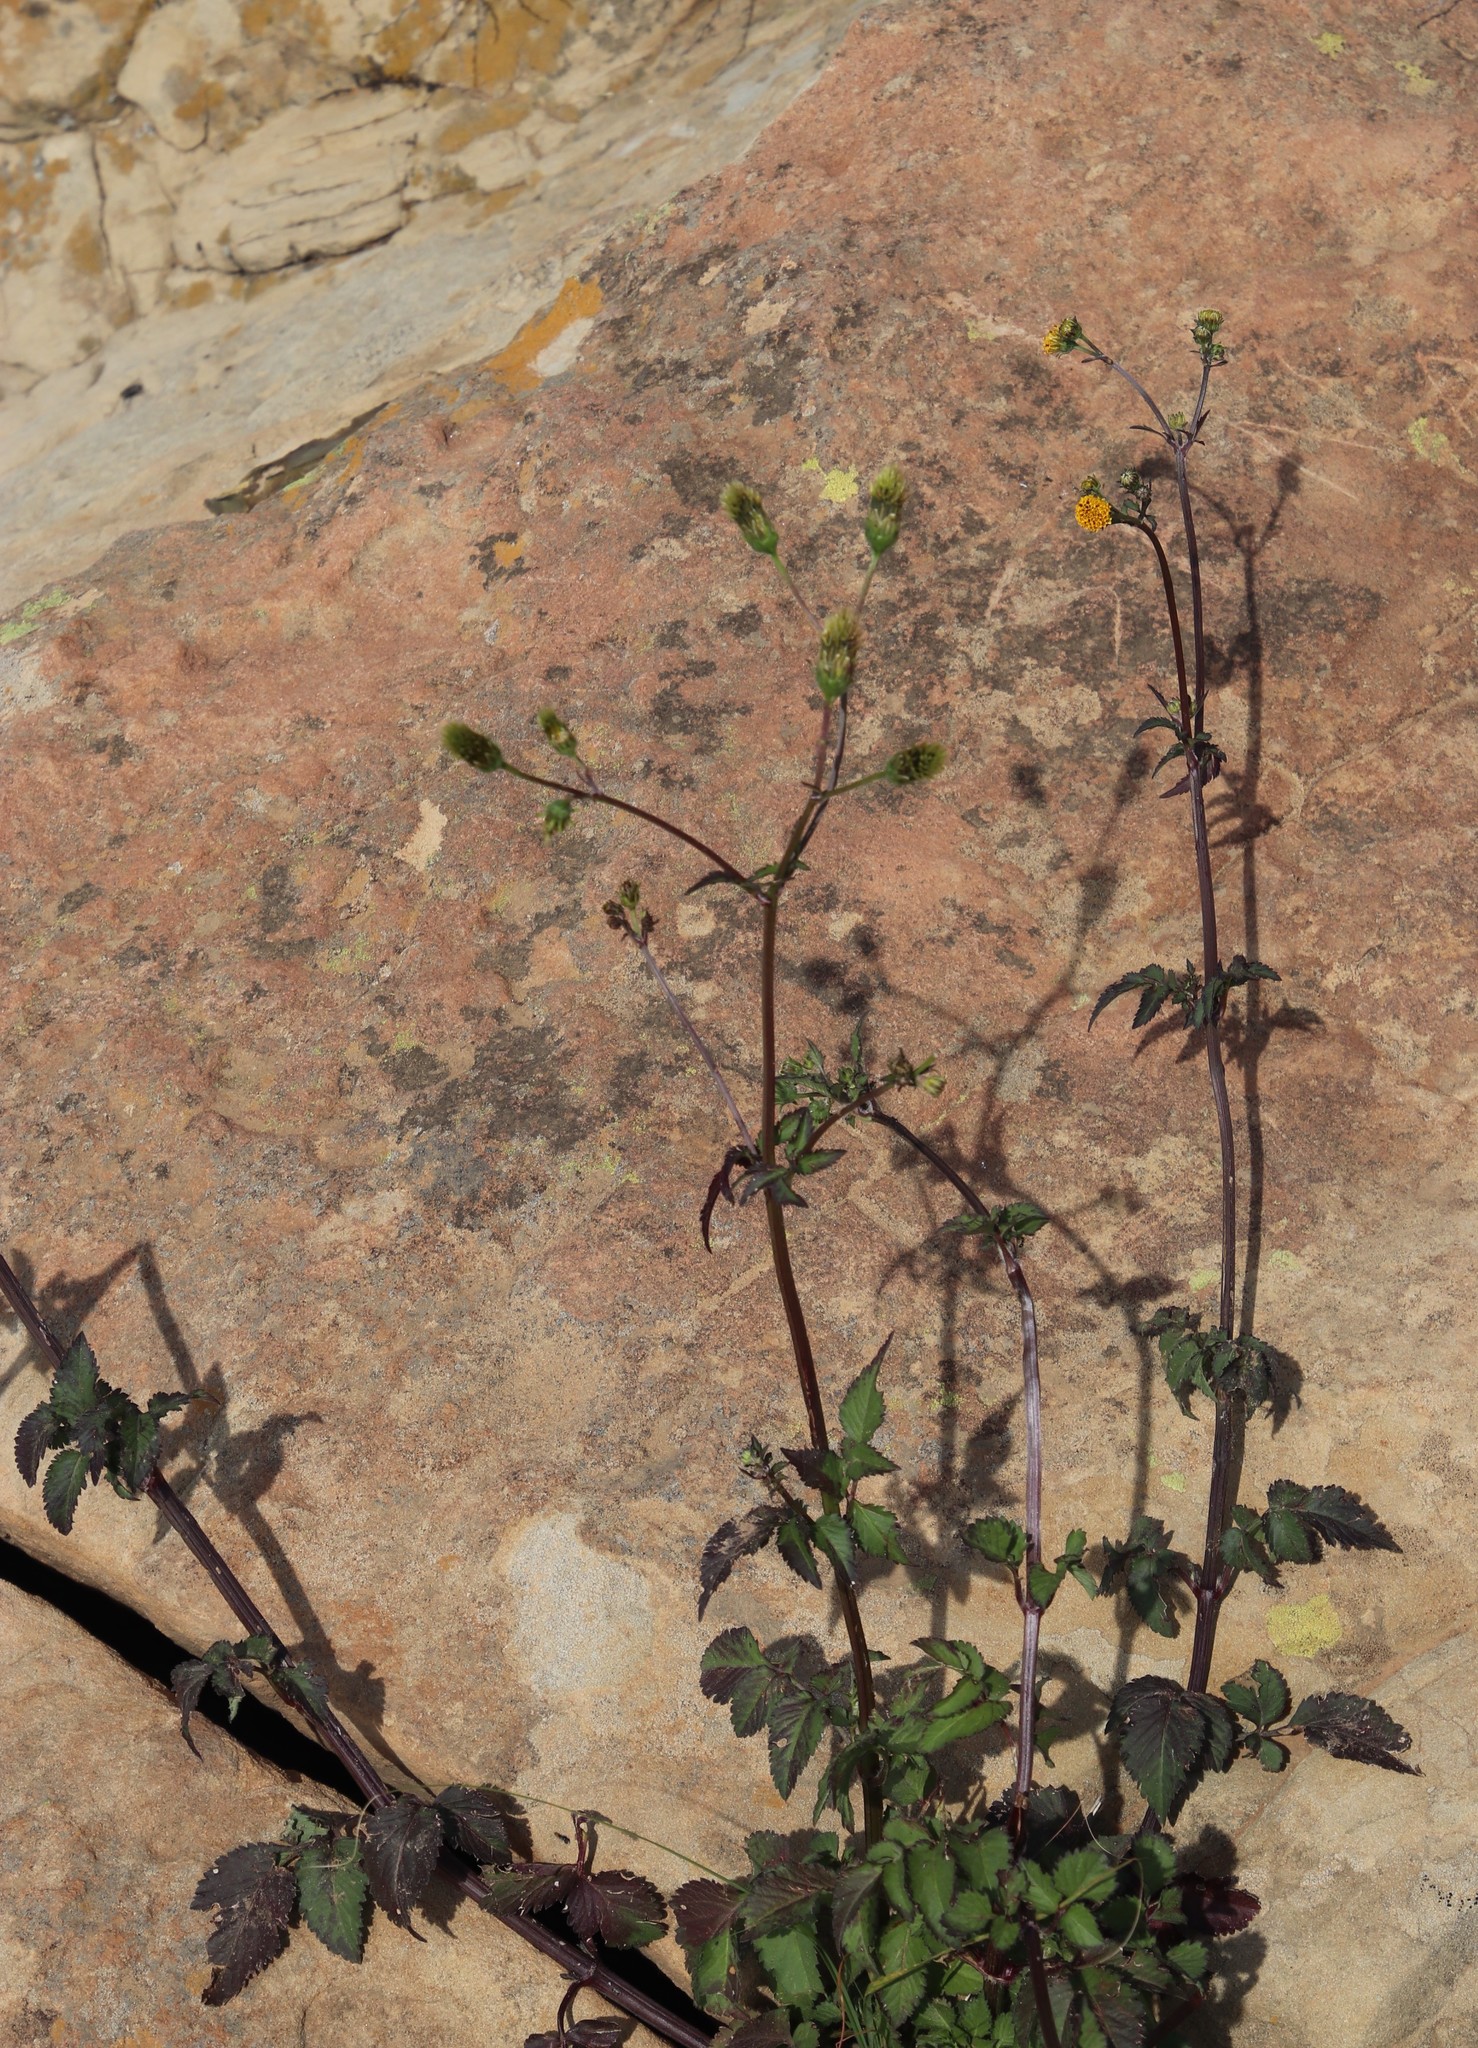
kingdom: Plantae
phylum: Tracheophyta
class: Magnoliopsida
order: Asterales
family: Asteraceae
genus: Bidens
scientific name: Bidens pilosa
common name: Black-jack
